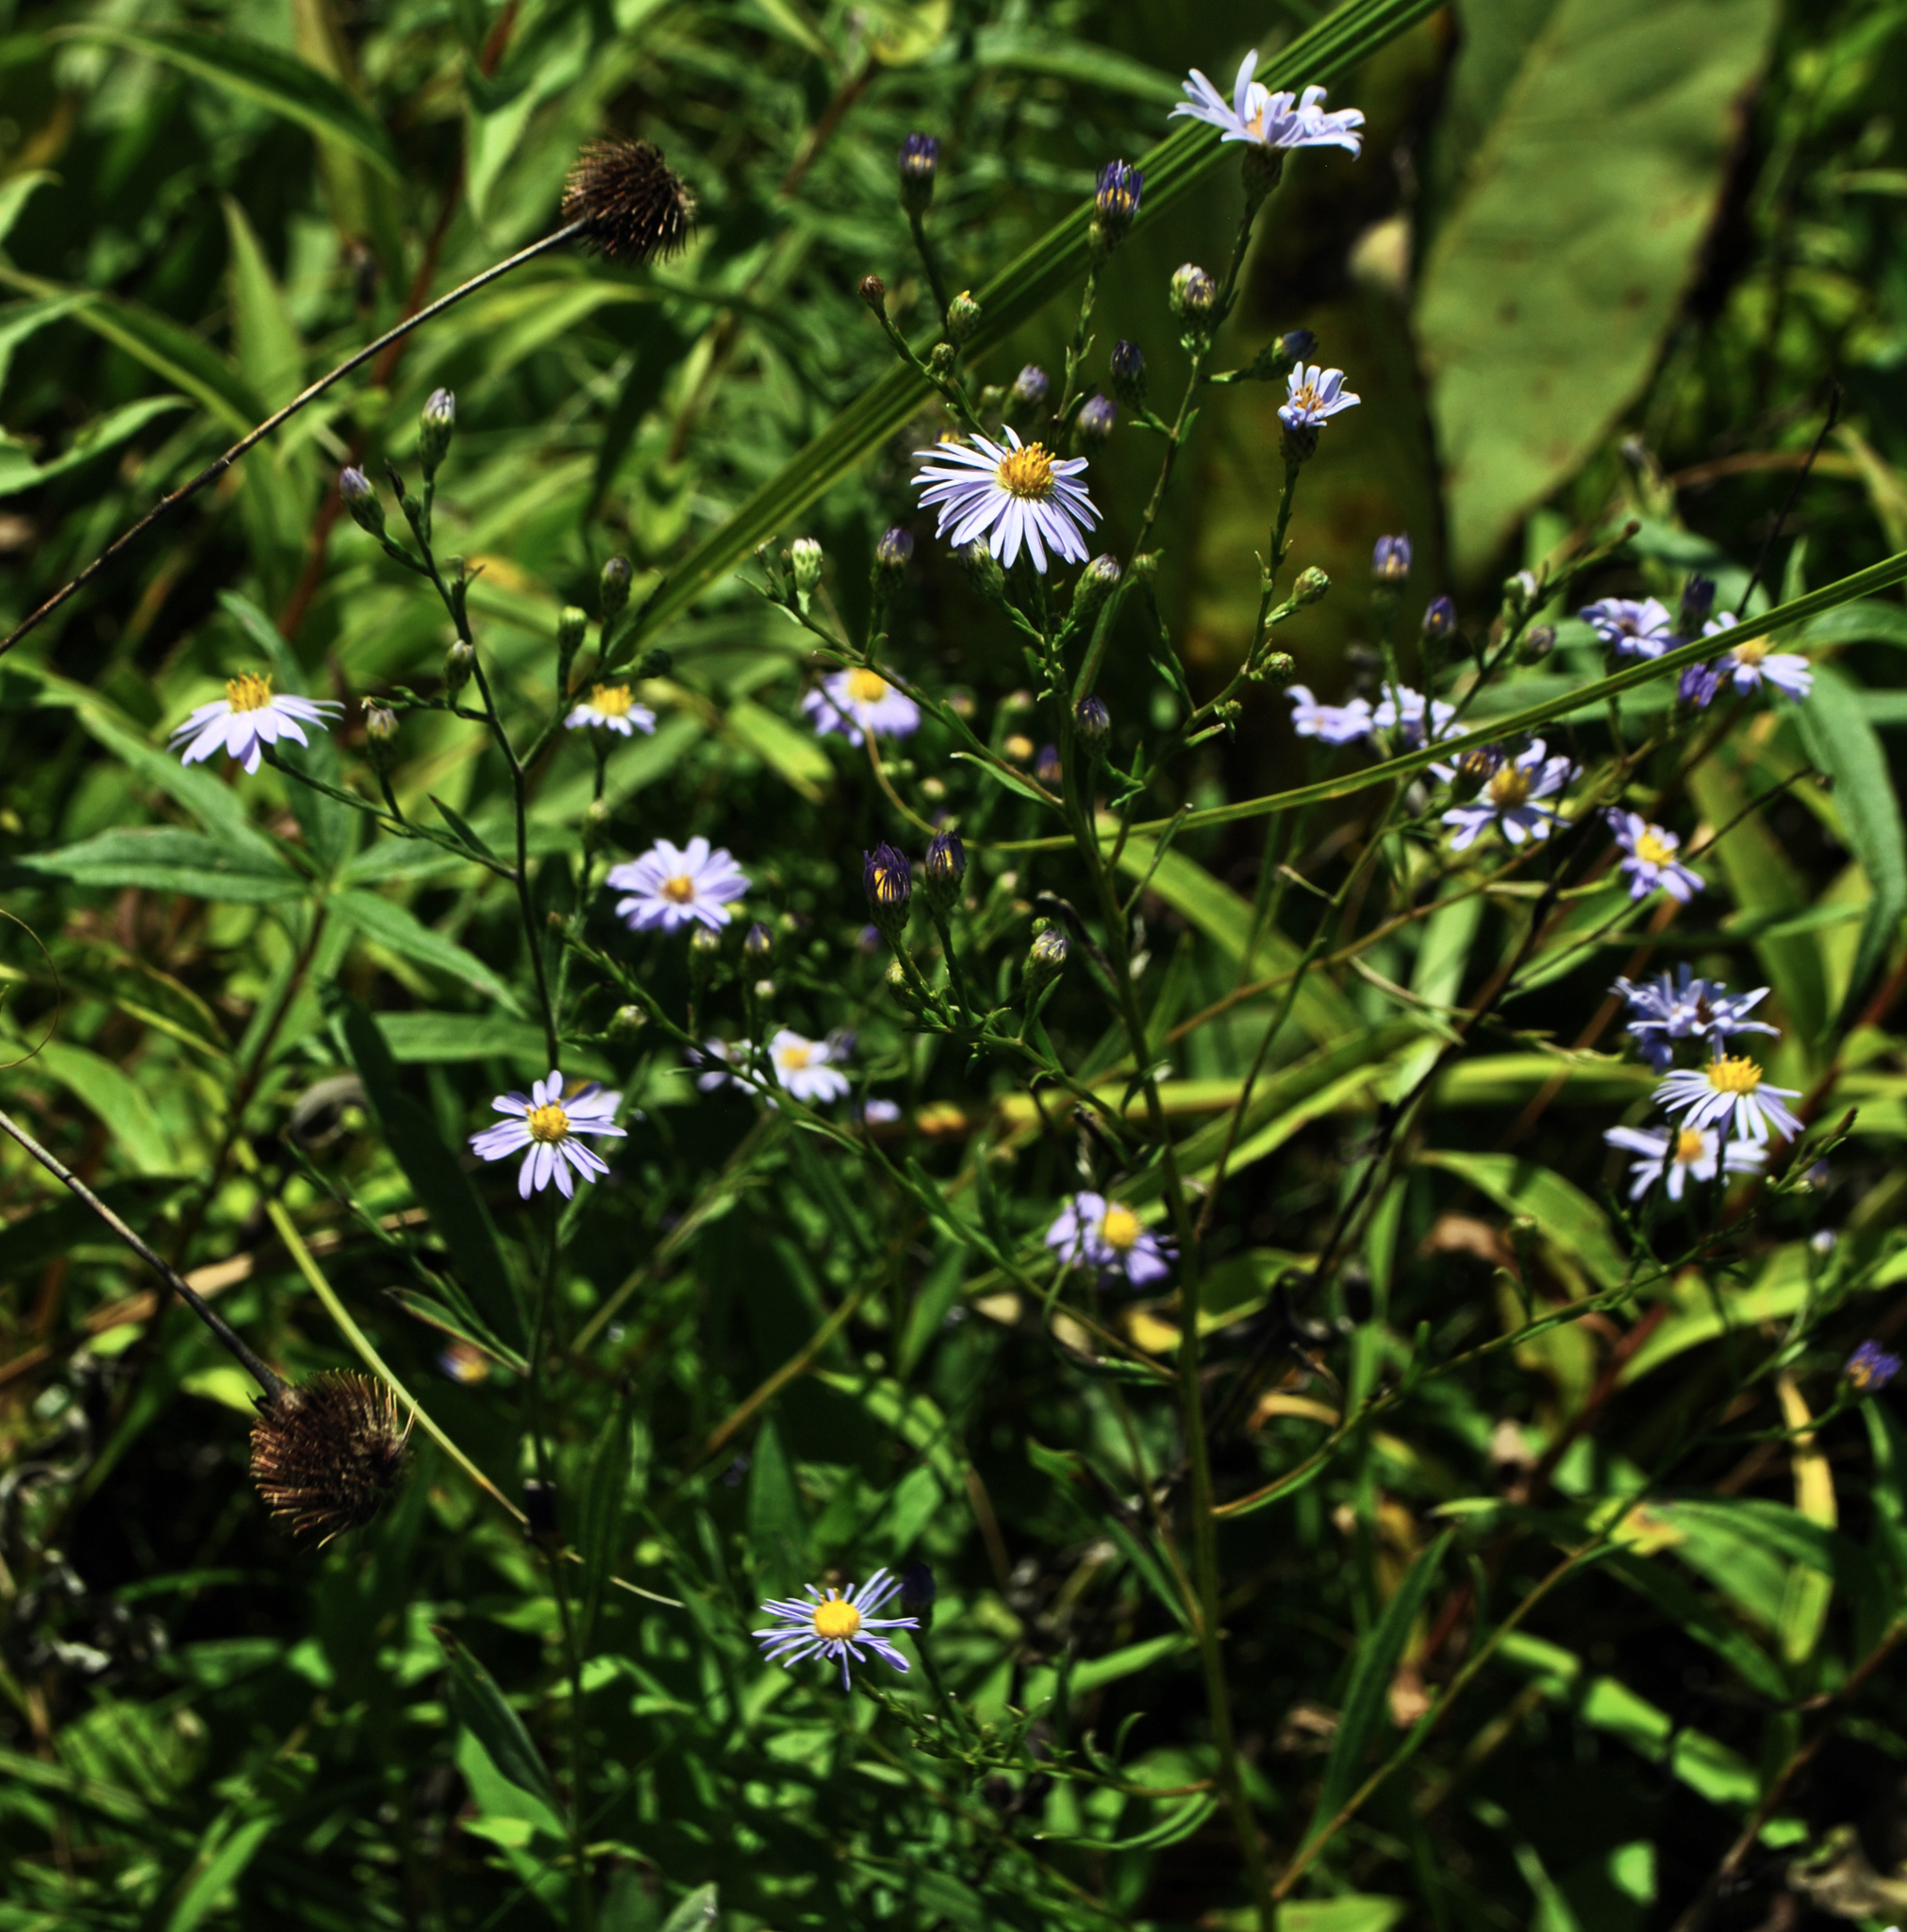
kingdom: Plantae
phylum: Tracheophyta
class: Magnoliopsida
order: Asterales
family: Asteraceae
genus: Symphyotrichum
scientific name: Symphyotrichum oolentangiense
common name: Azure aster
